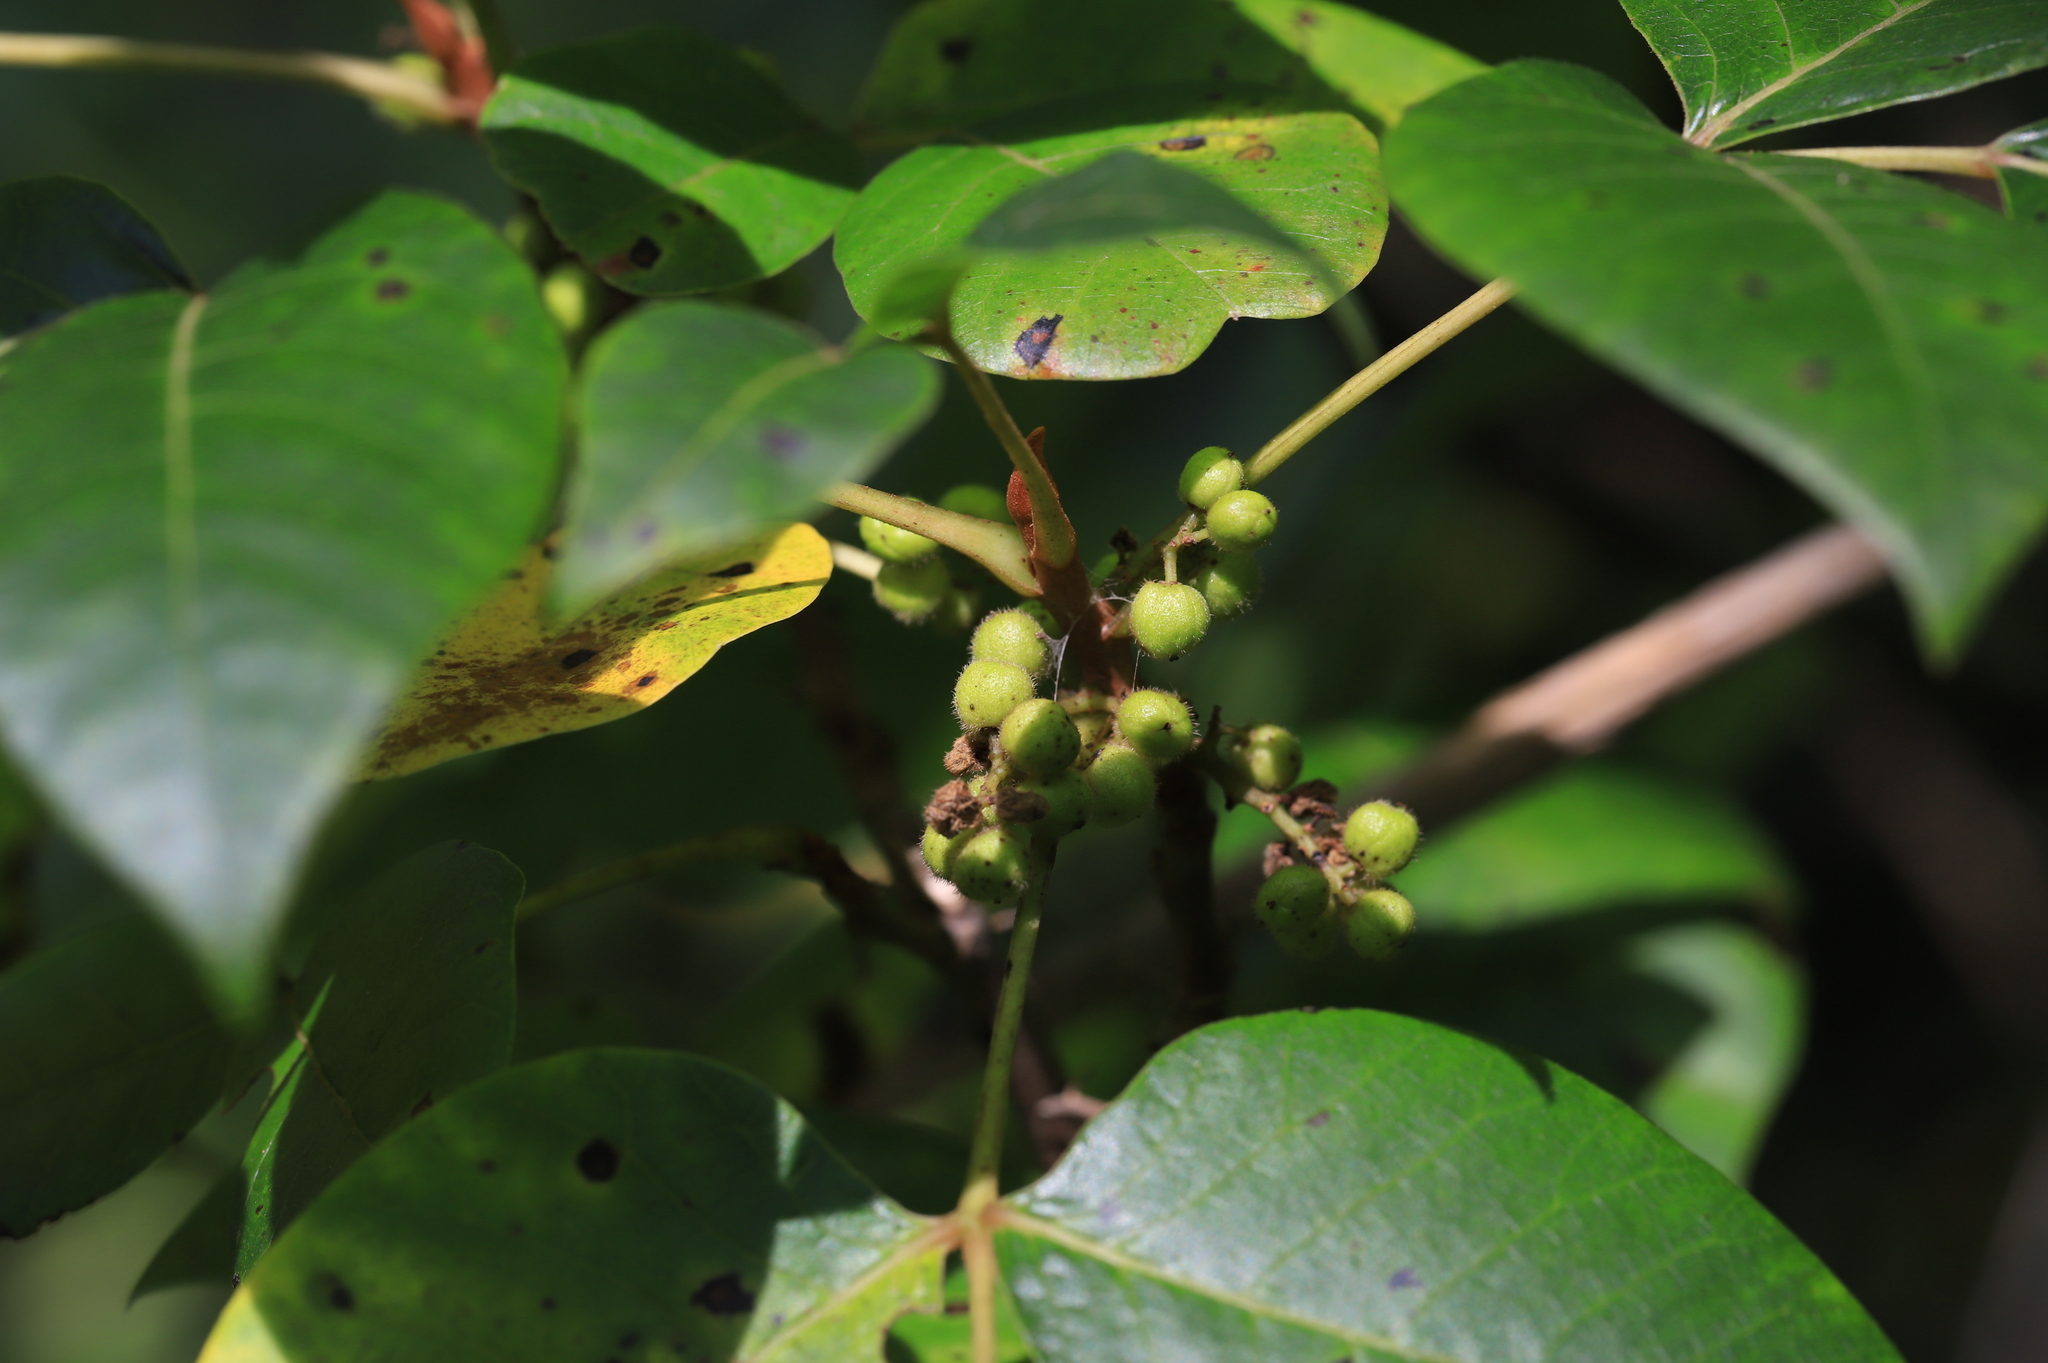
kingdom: Plantae
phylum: Tracheophyta
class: Magnoliopsida
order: Sapindales
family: Anacardiaceae
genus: Toxicodendron
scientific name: Toxicodendron radicans
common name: Poison ivy
